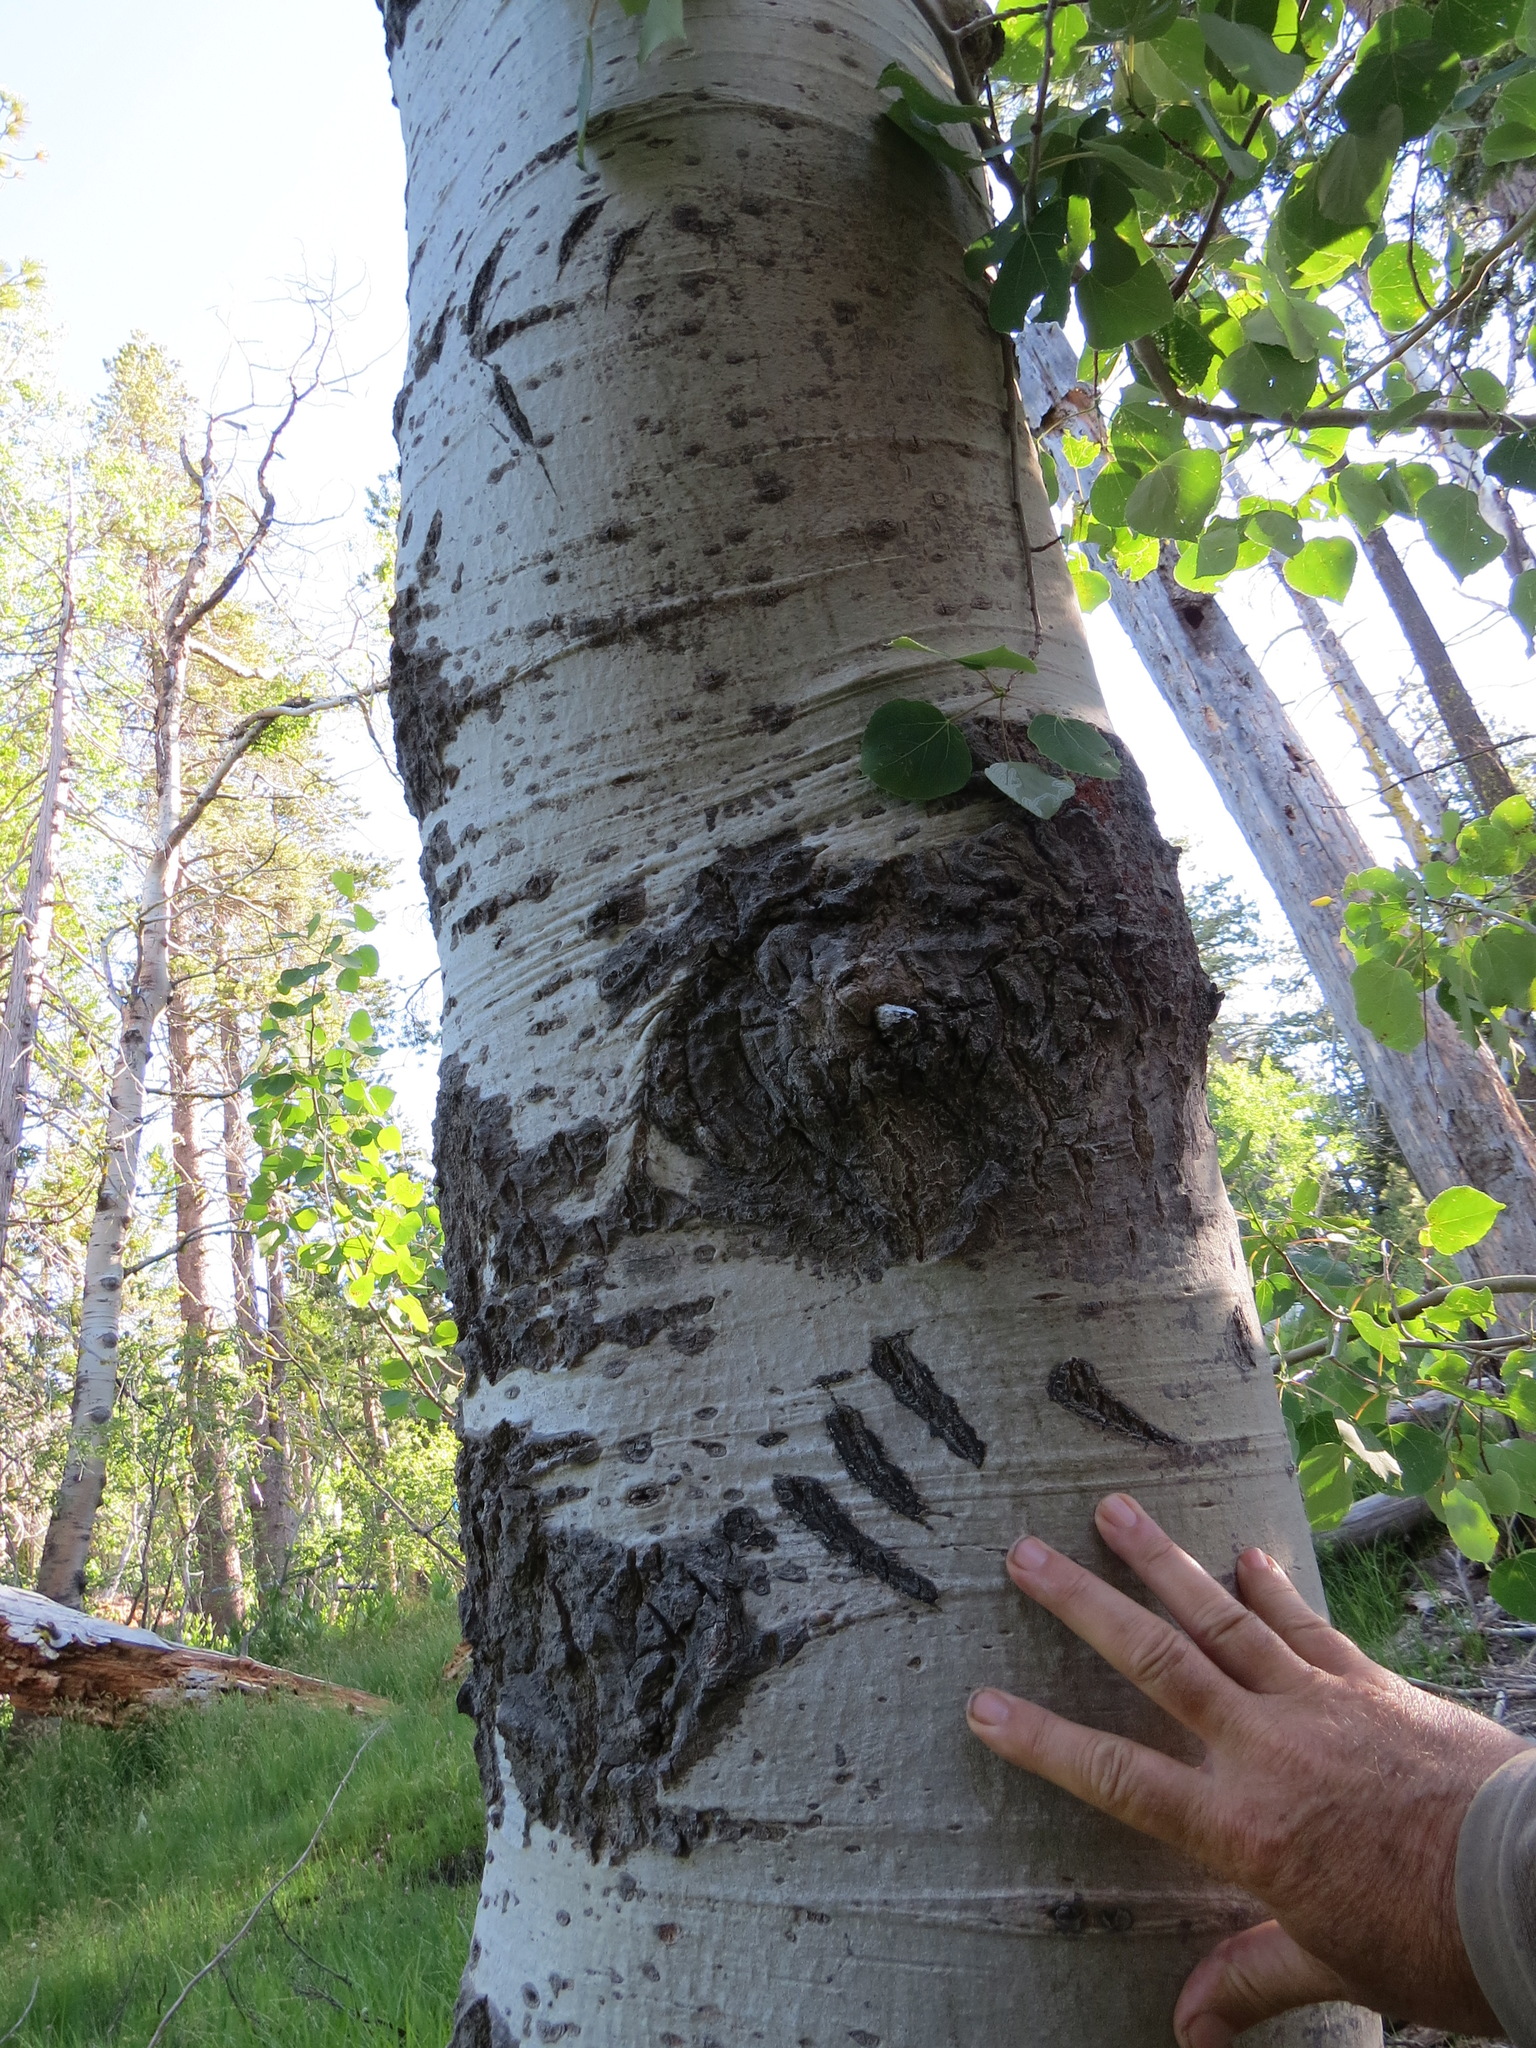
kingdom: Animalia
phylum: Chordata
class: Mammalia
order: Carnivora
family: Ursidae
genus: Ursus
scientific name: Ursus americanus
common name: American black bear
